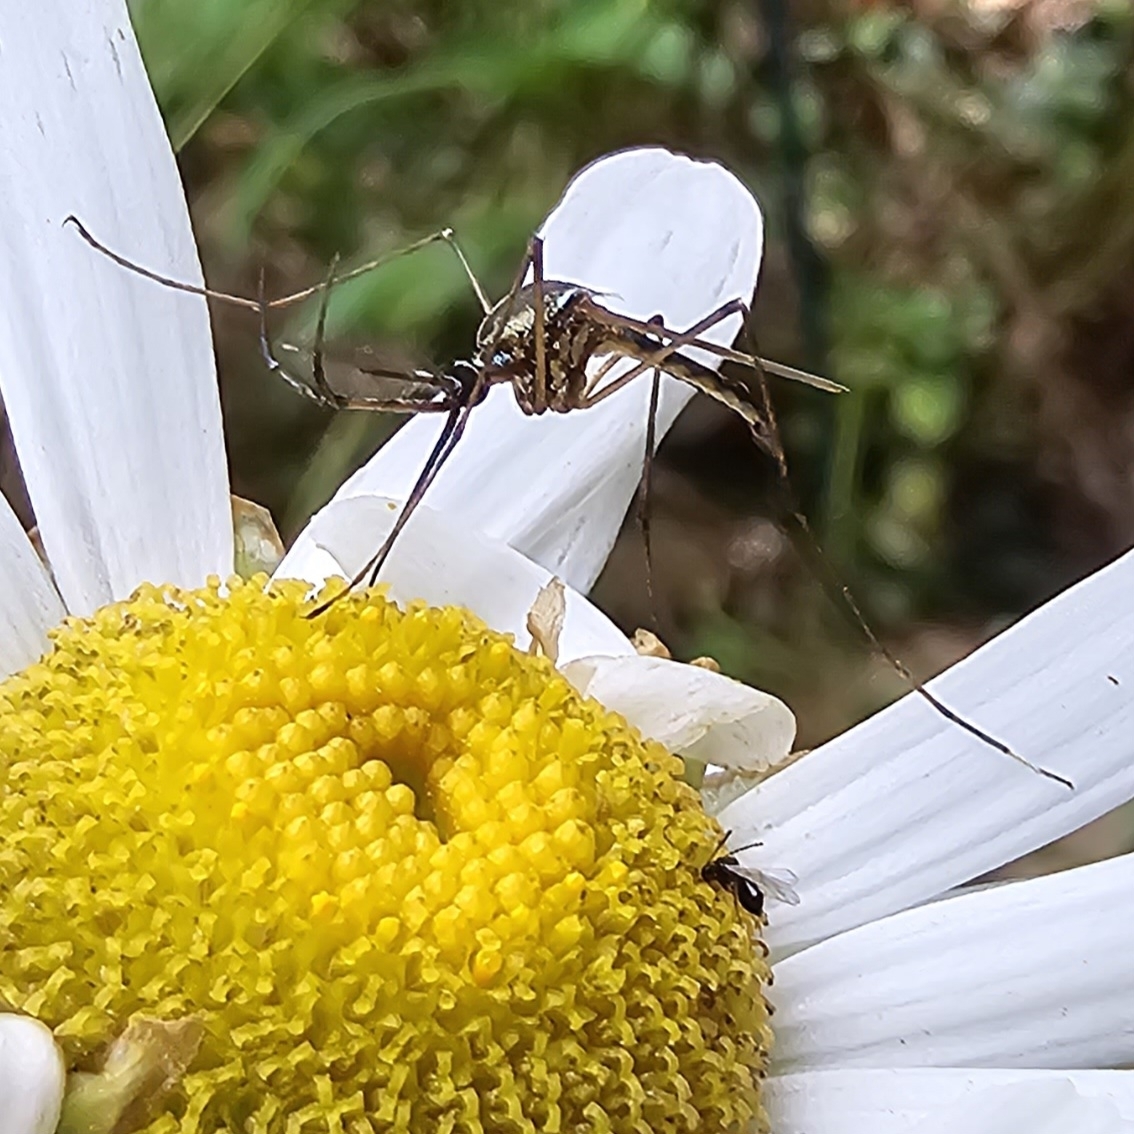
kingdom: Animalia
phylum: Arthropoda
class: Insecta
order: Diptera
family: Culicidae
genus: Toxorhynchites
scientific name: Toxorhynchites rutilus
